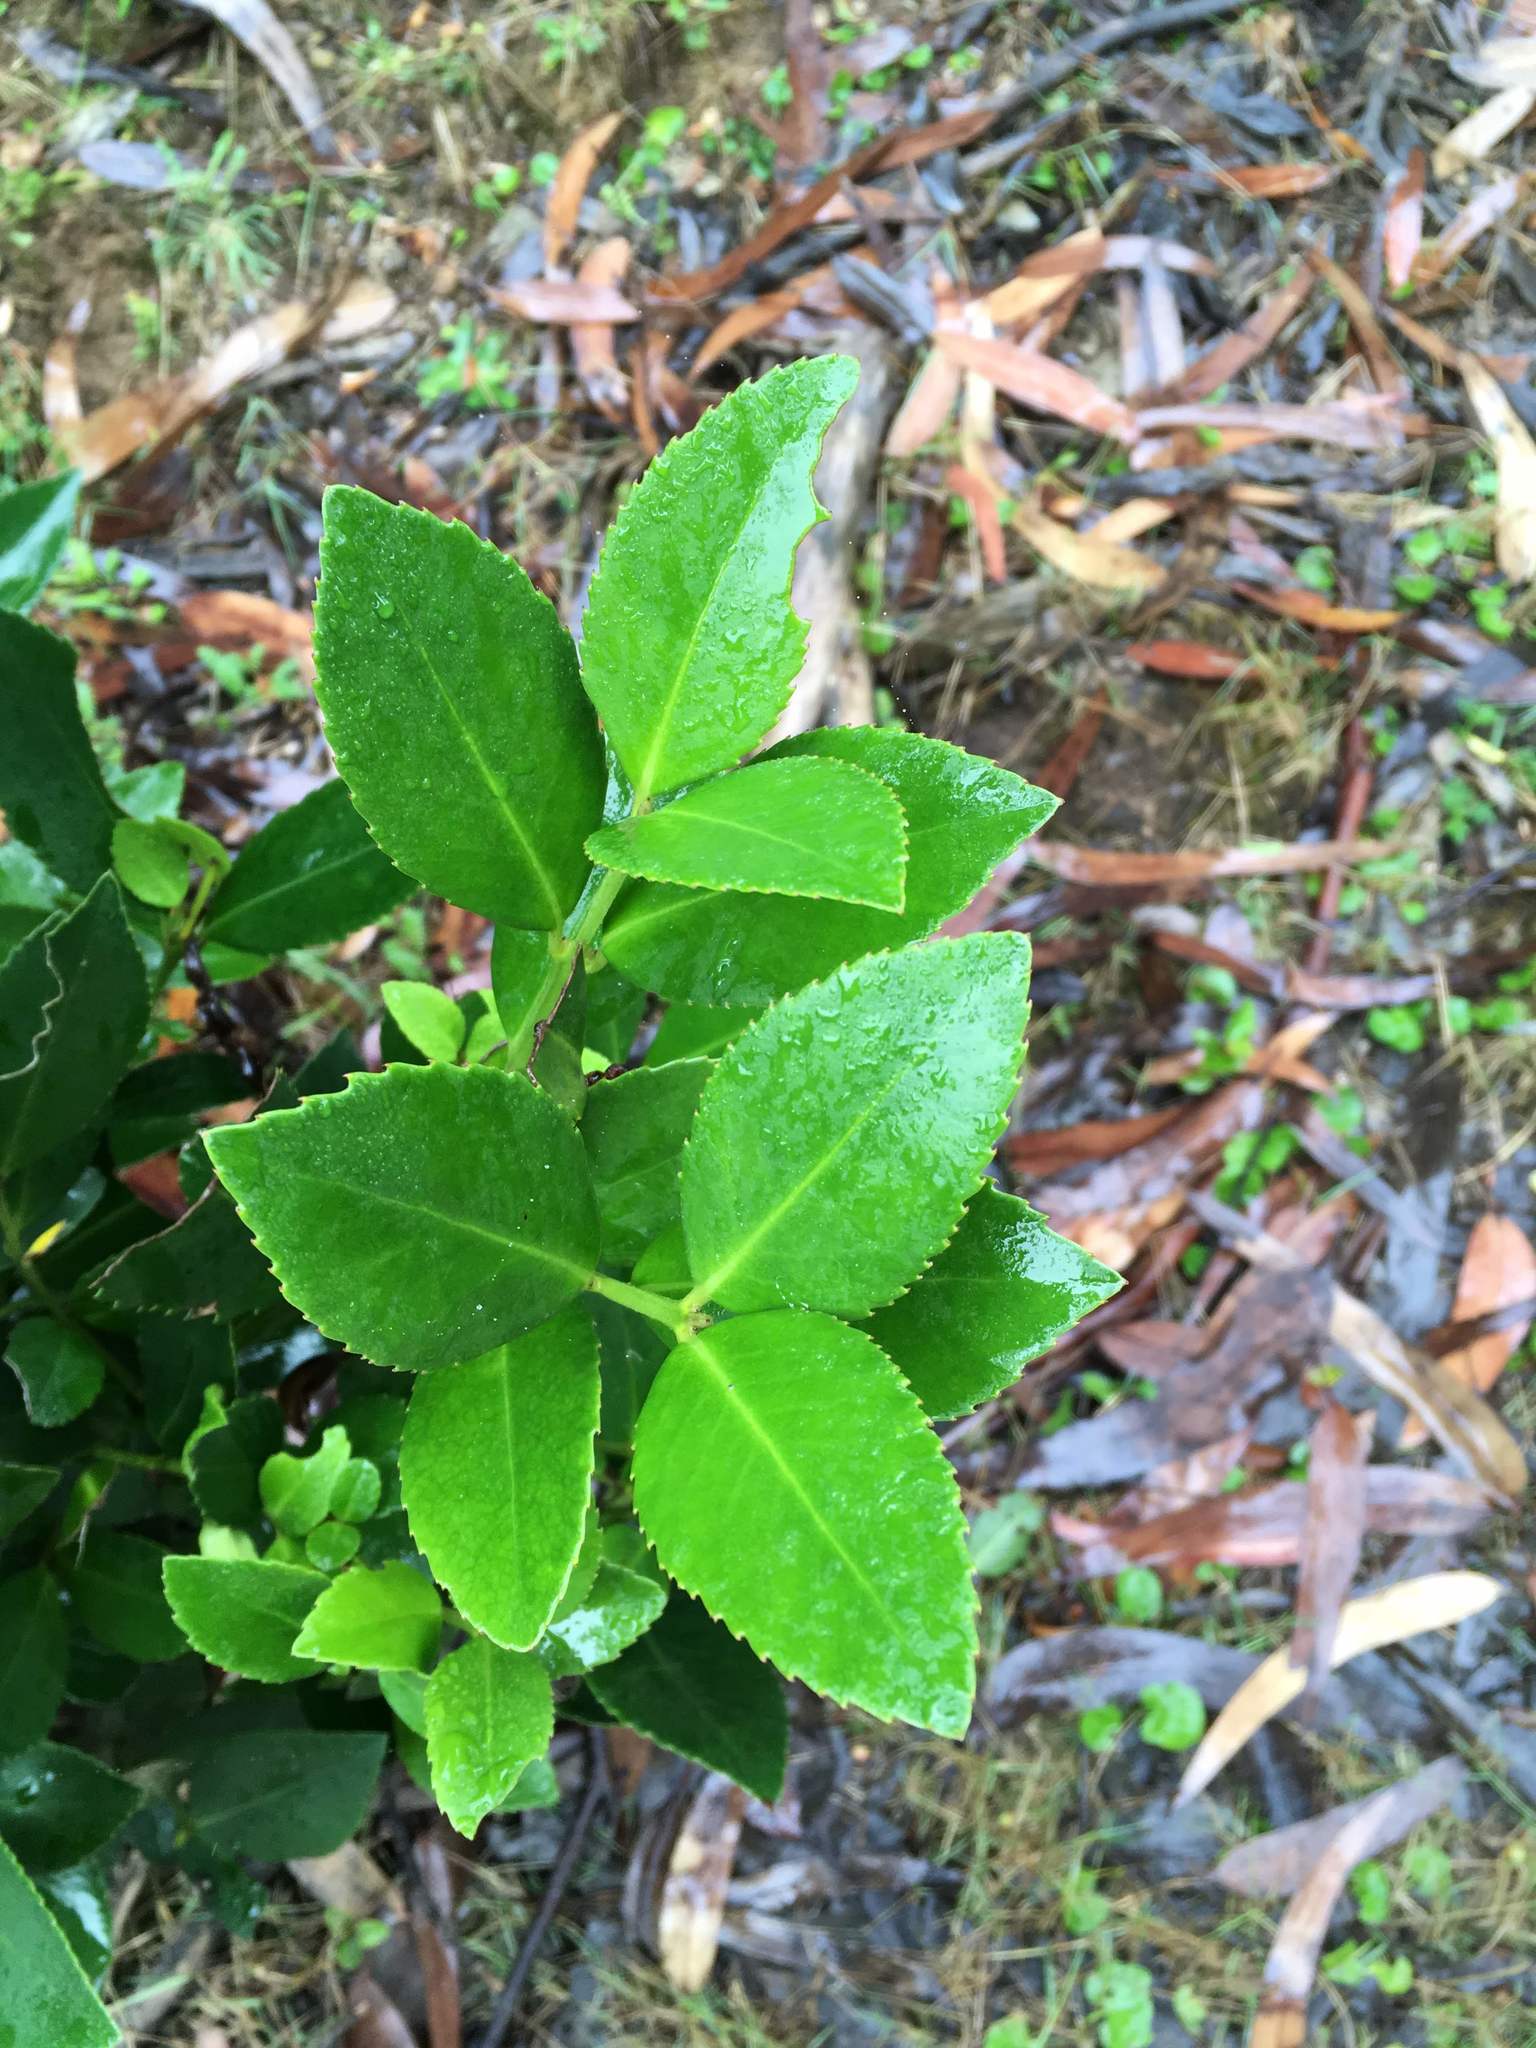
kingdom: Plantae
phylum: Tracheophyta
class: Magnoliopsida
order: Laurales
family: Atherospermataceae
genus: Laureliopsis
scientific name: Laureliopsis philippiana
